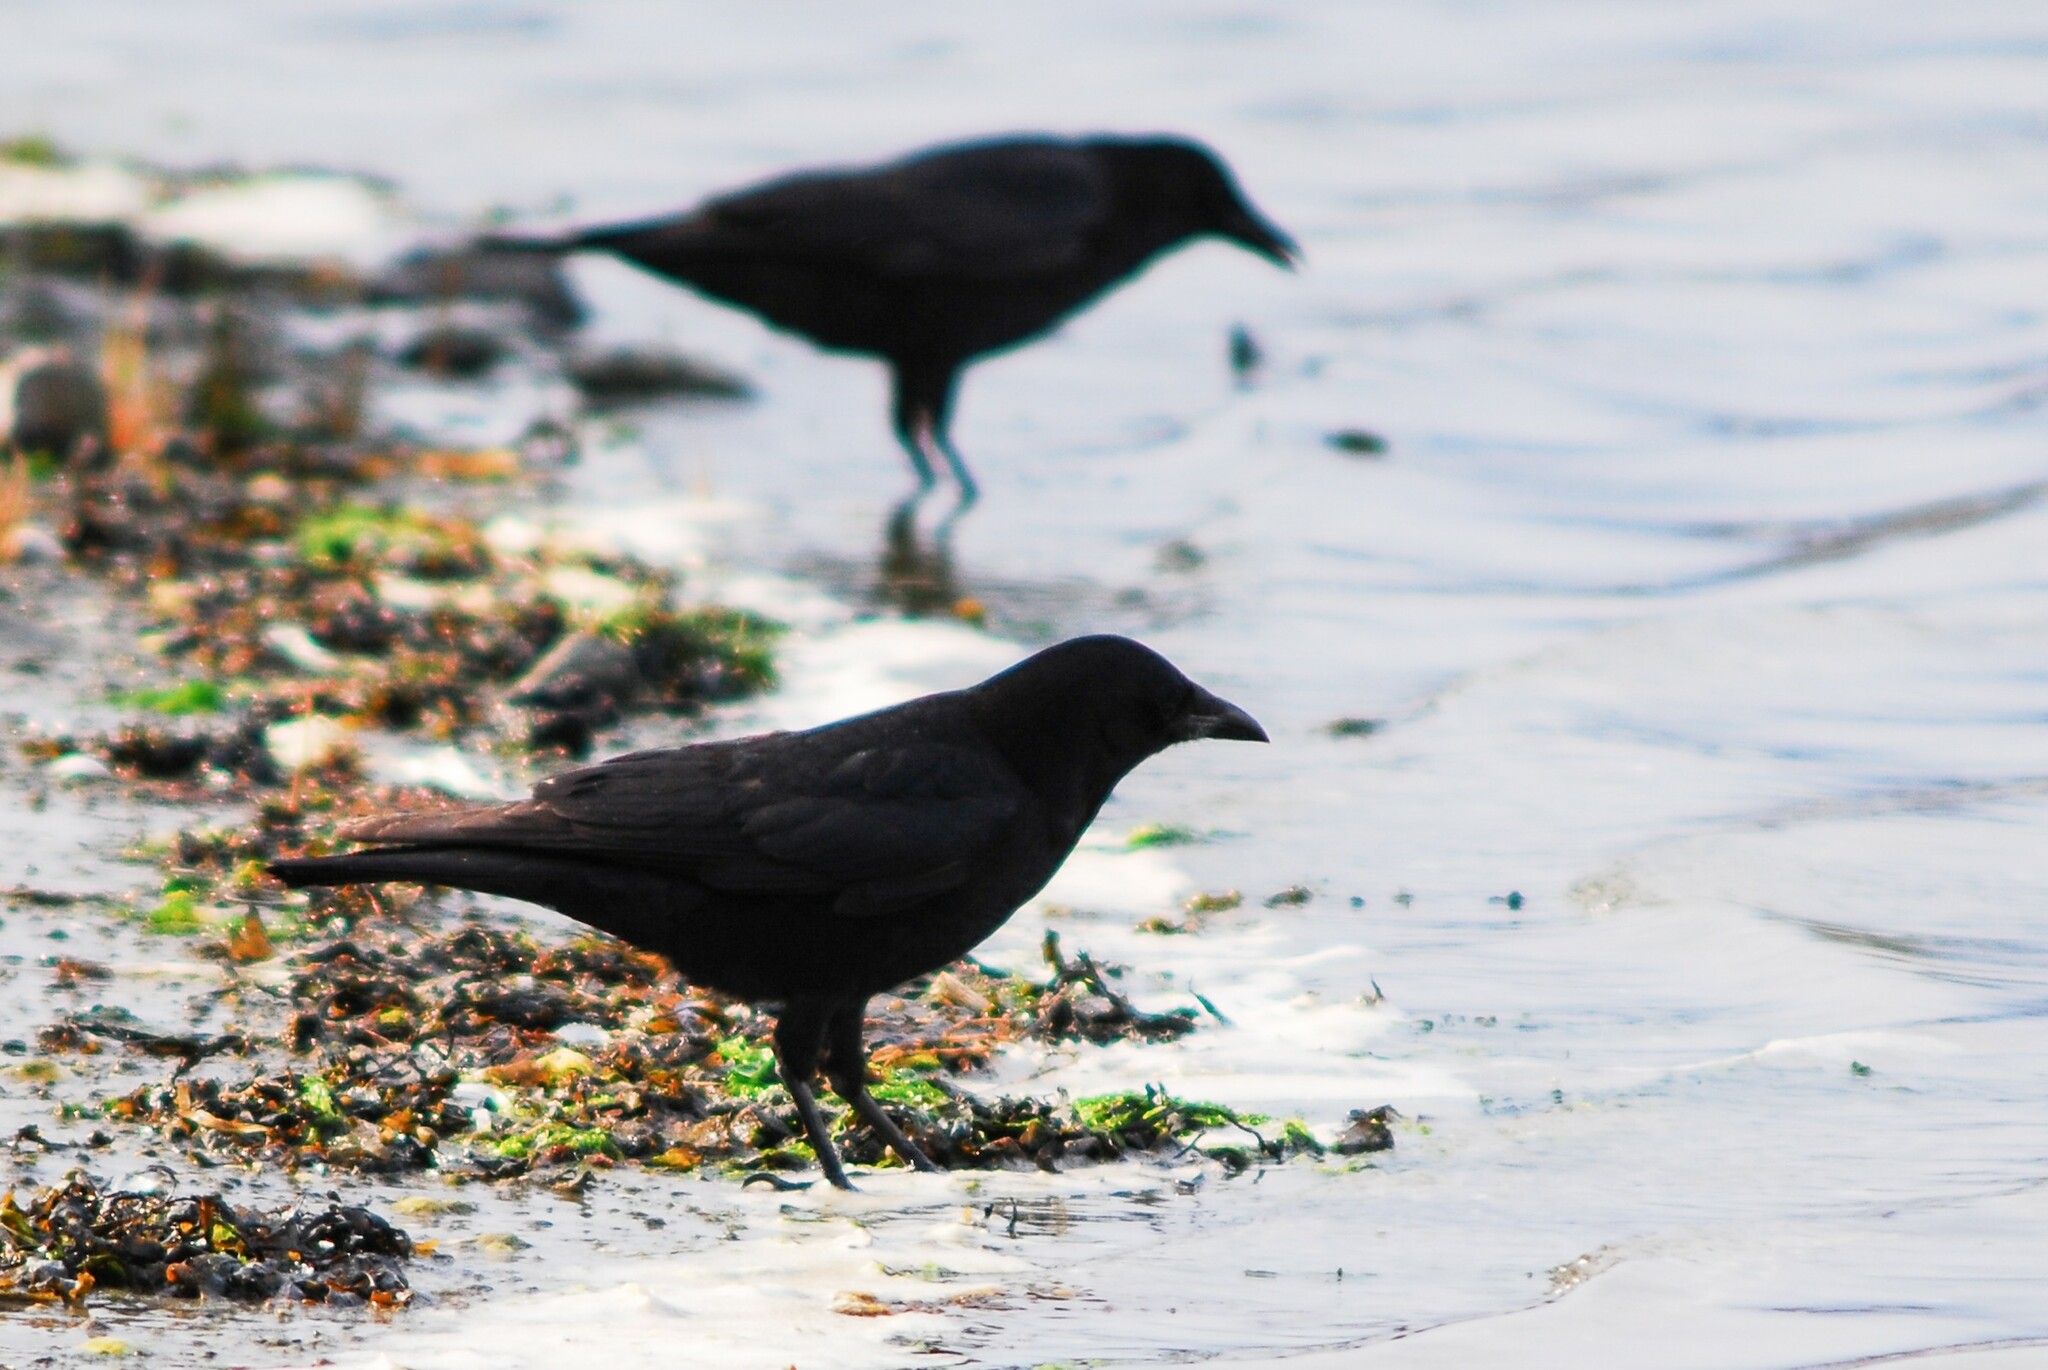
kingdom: Animalia
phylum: Chordata
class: Aves
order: Passeriformes
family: Corvidae
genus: Corvus
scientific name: Corvus brachyrhynchos
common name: American crow
